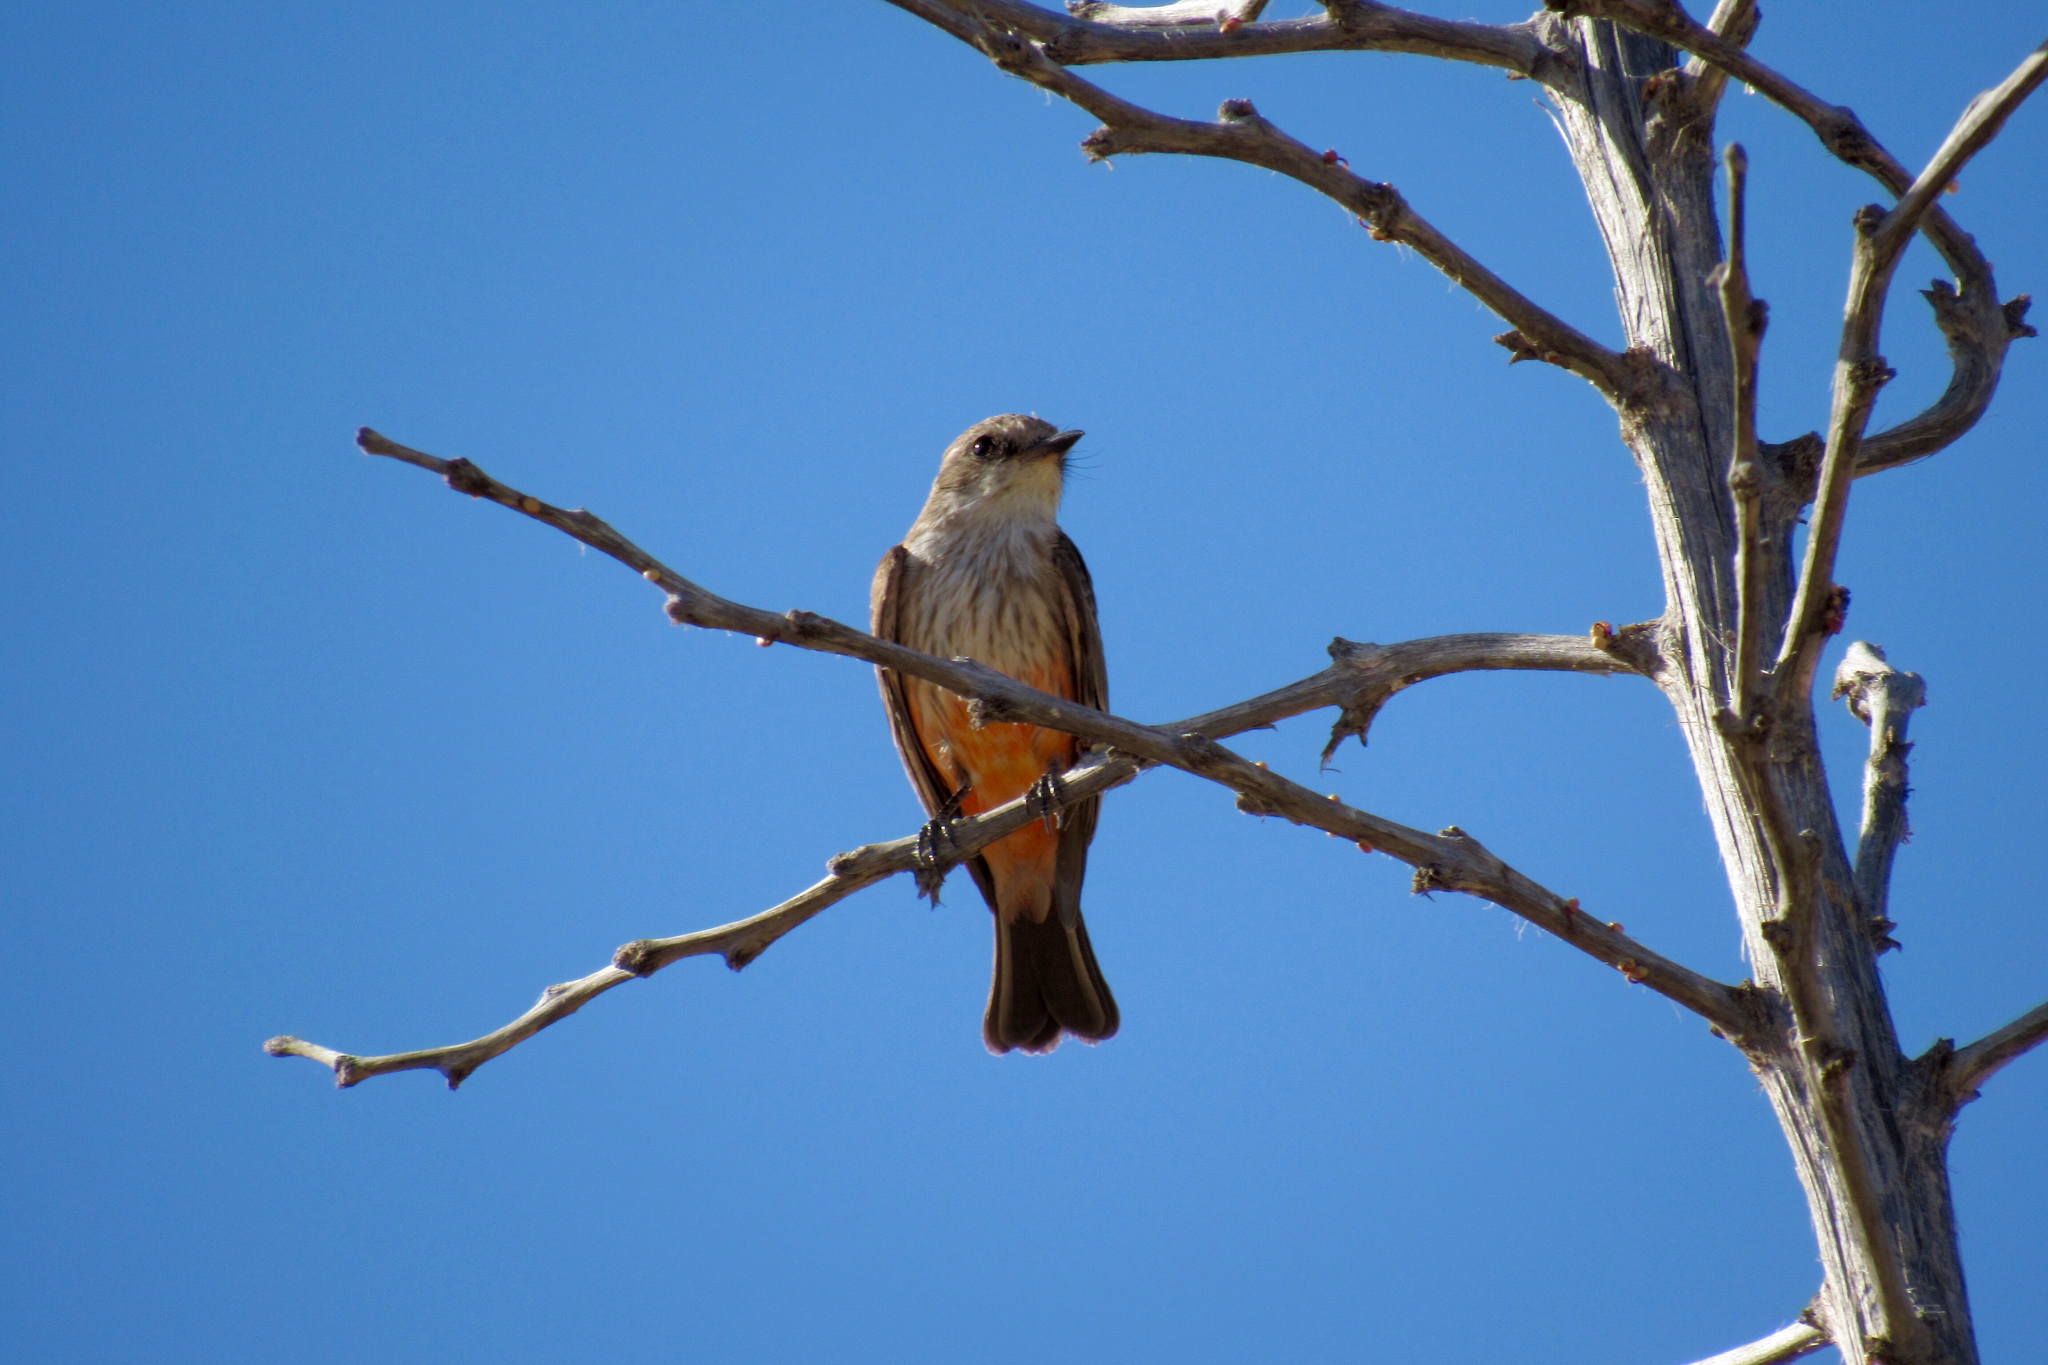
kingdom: Animalia
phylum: Chordata
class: Aves
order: Passeriformes
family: Tyrannidae
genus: Pyrocephalus
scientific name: Pyrocephalus rubinus
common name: Vermilion flycatcher
